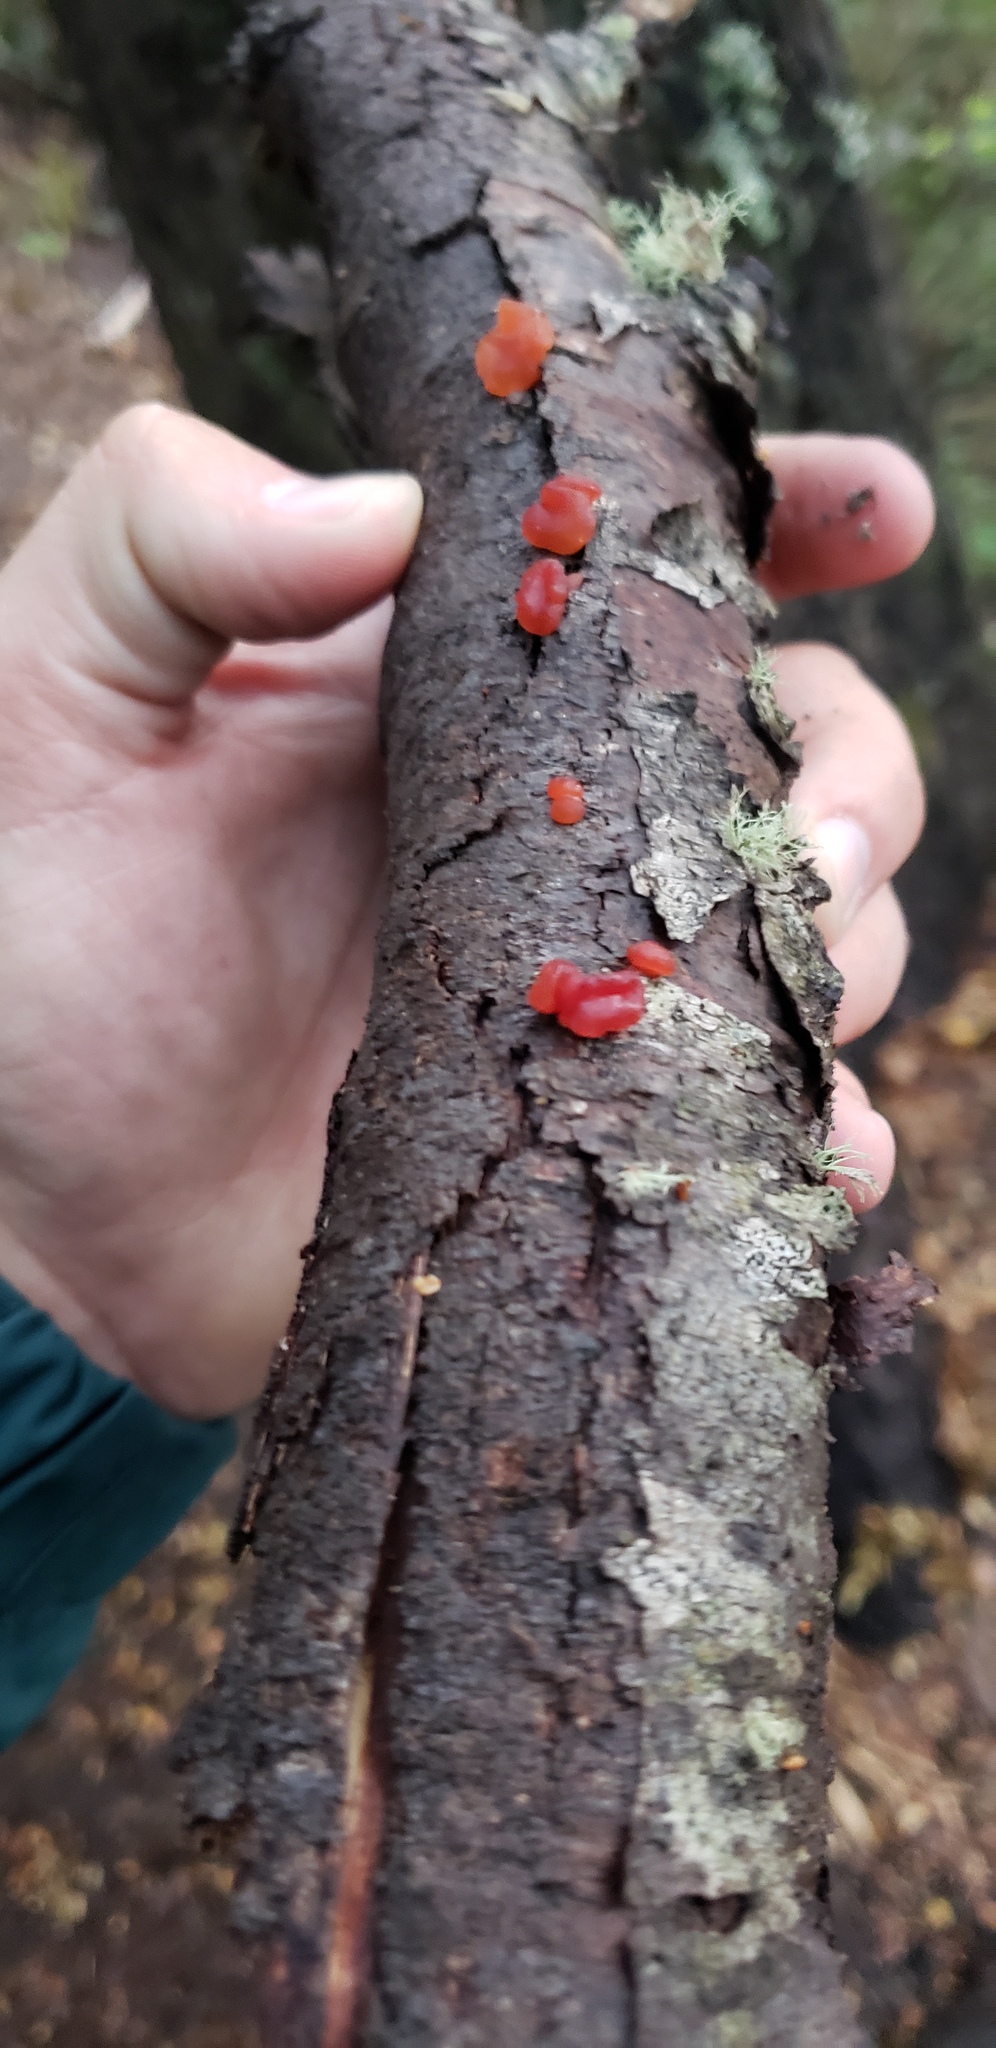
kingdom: Fungi
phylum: Basidiomycota
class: Dacrymycetes
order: Dacrymycetales
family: Dacrymycetaceae
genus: Guepiniopsis
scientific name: Guepiniopsis alpina
